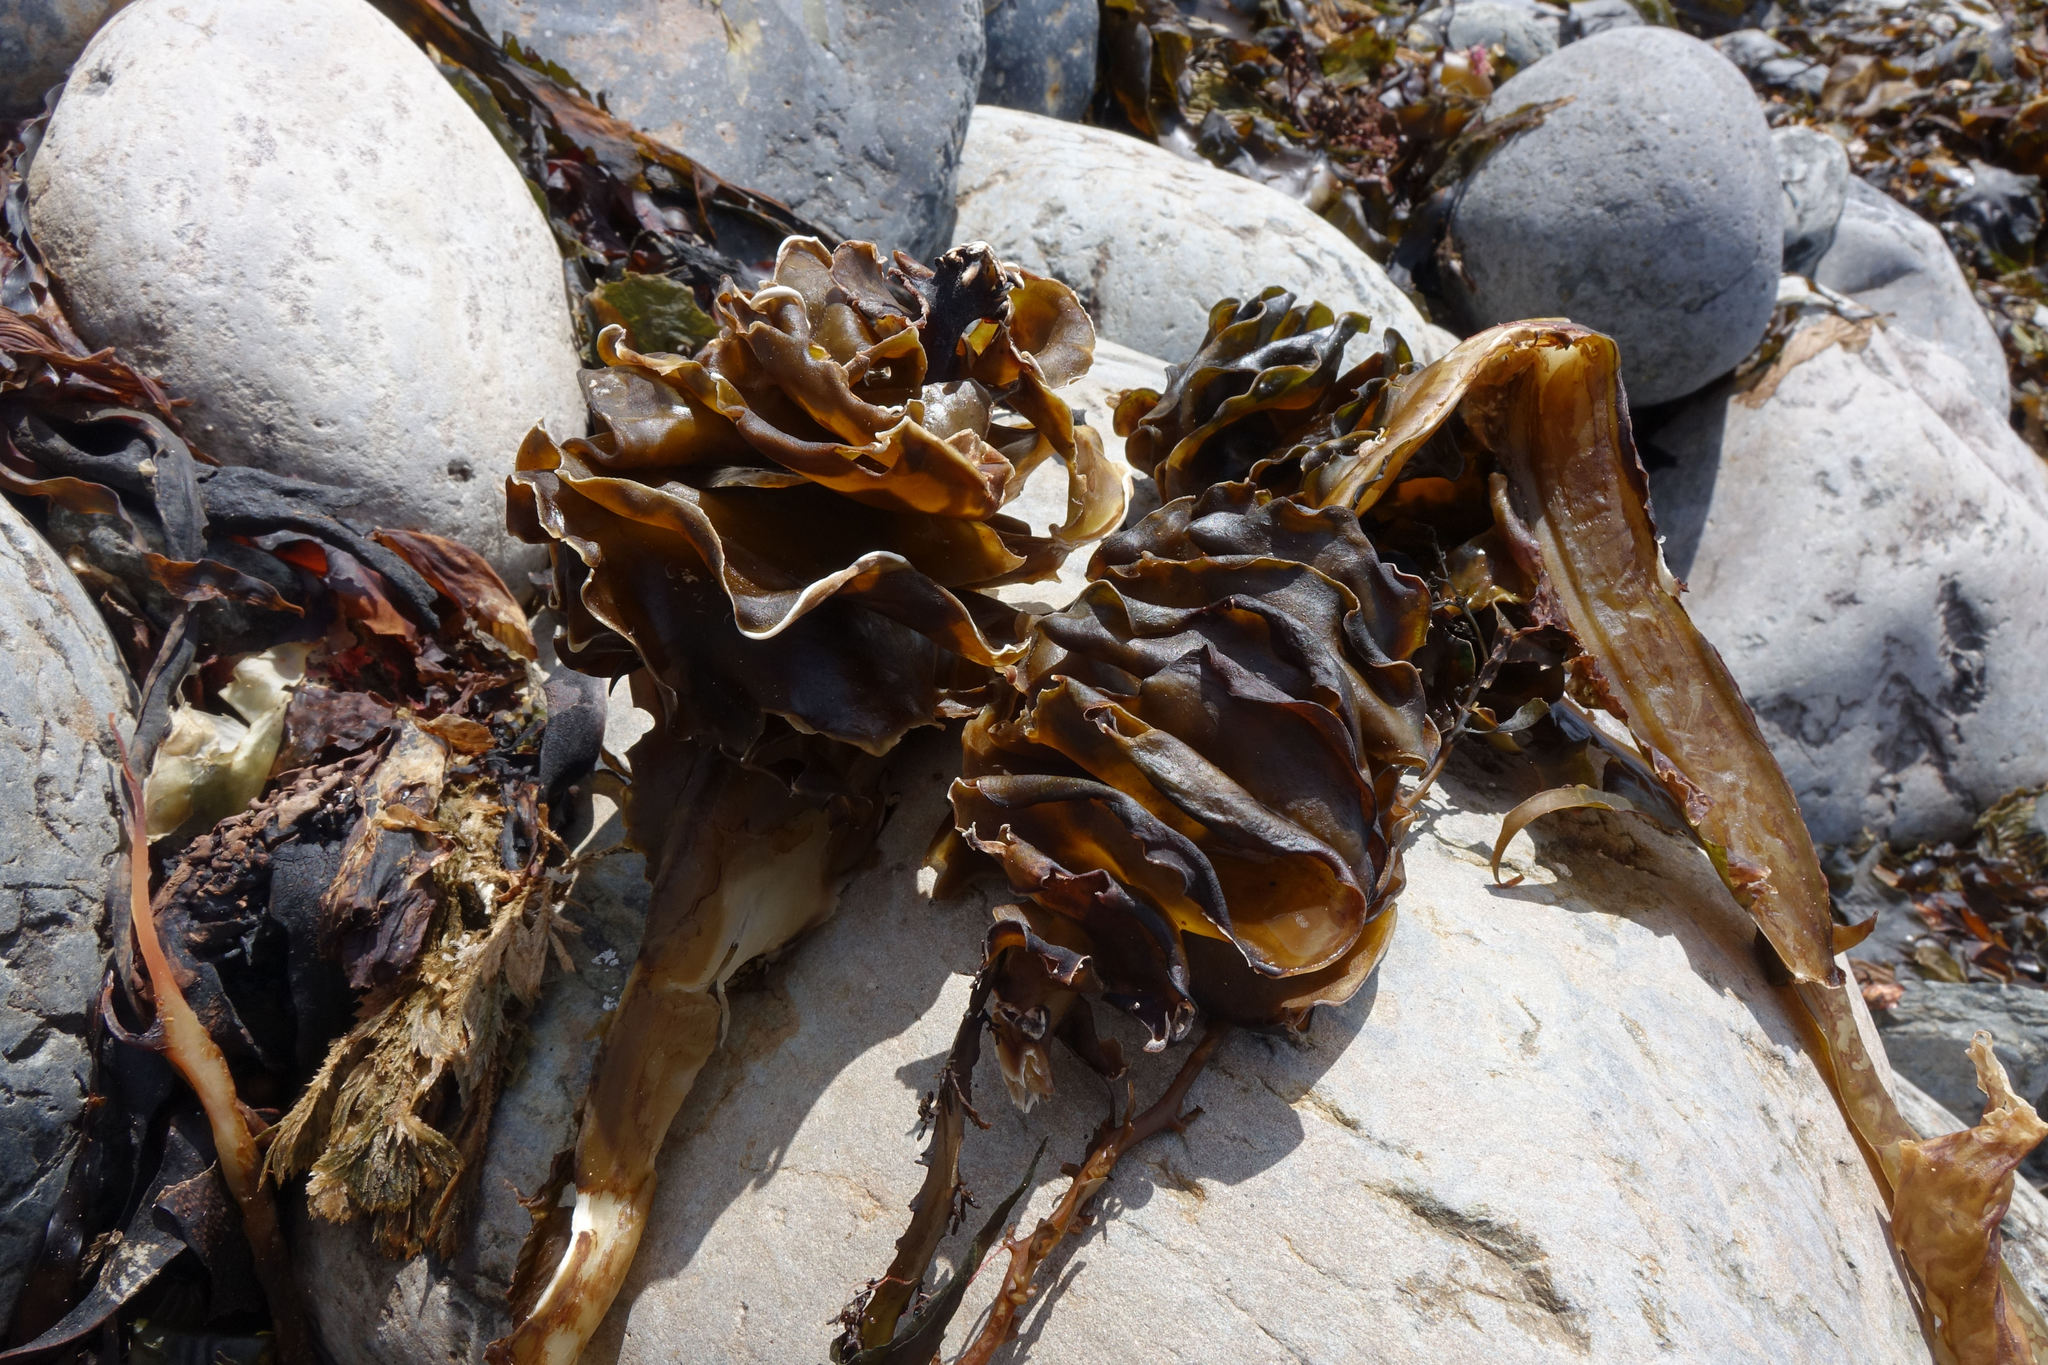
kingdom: Chromista
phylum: Ochrophyta
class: Phaeophyceae
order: Laminariales
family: Alariaceae
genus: Undaria
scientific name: Undaria pinnatifida
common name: Asian kelp
